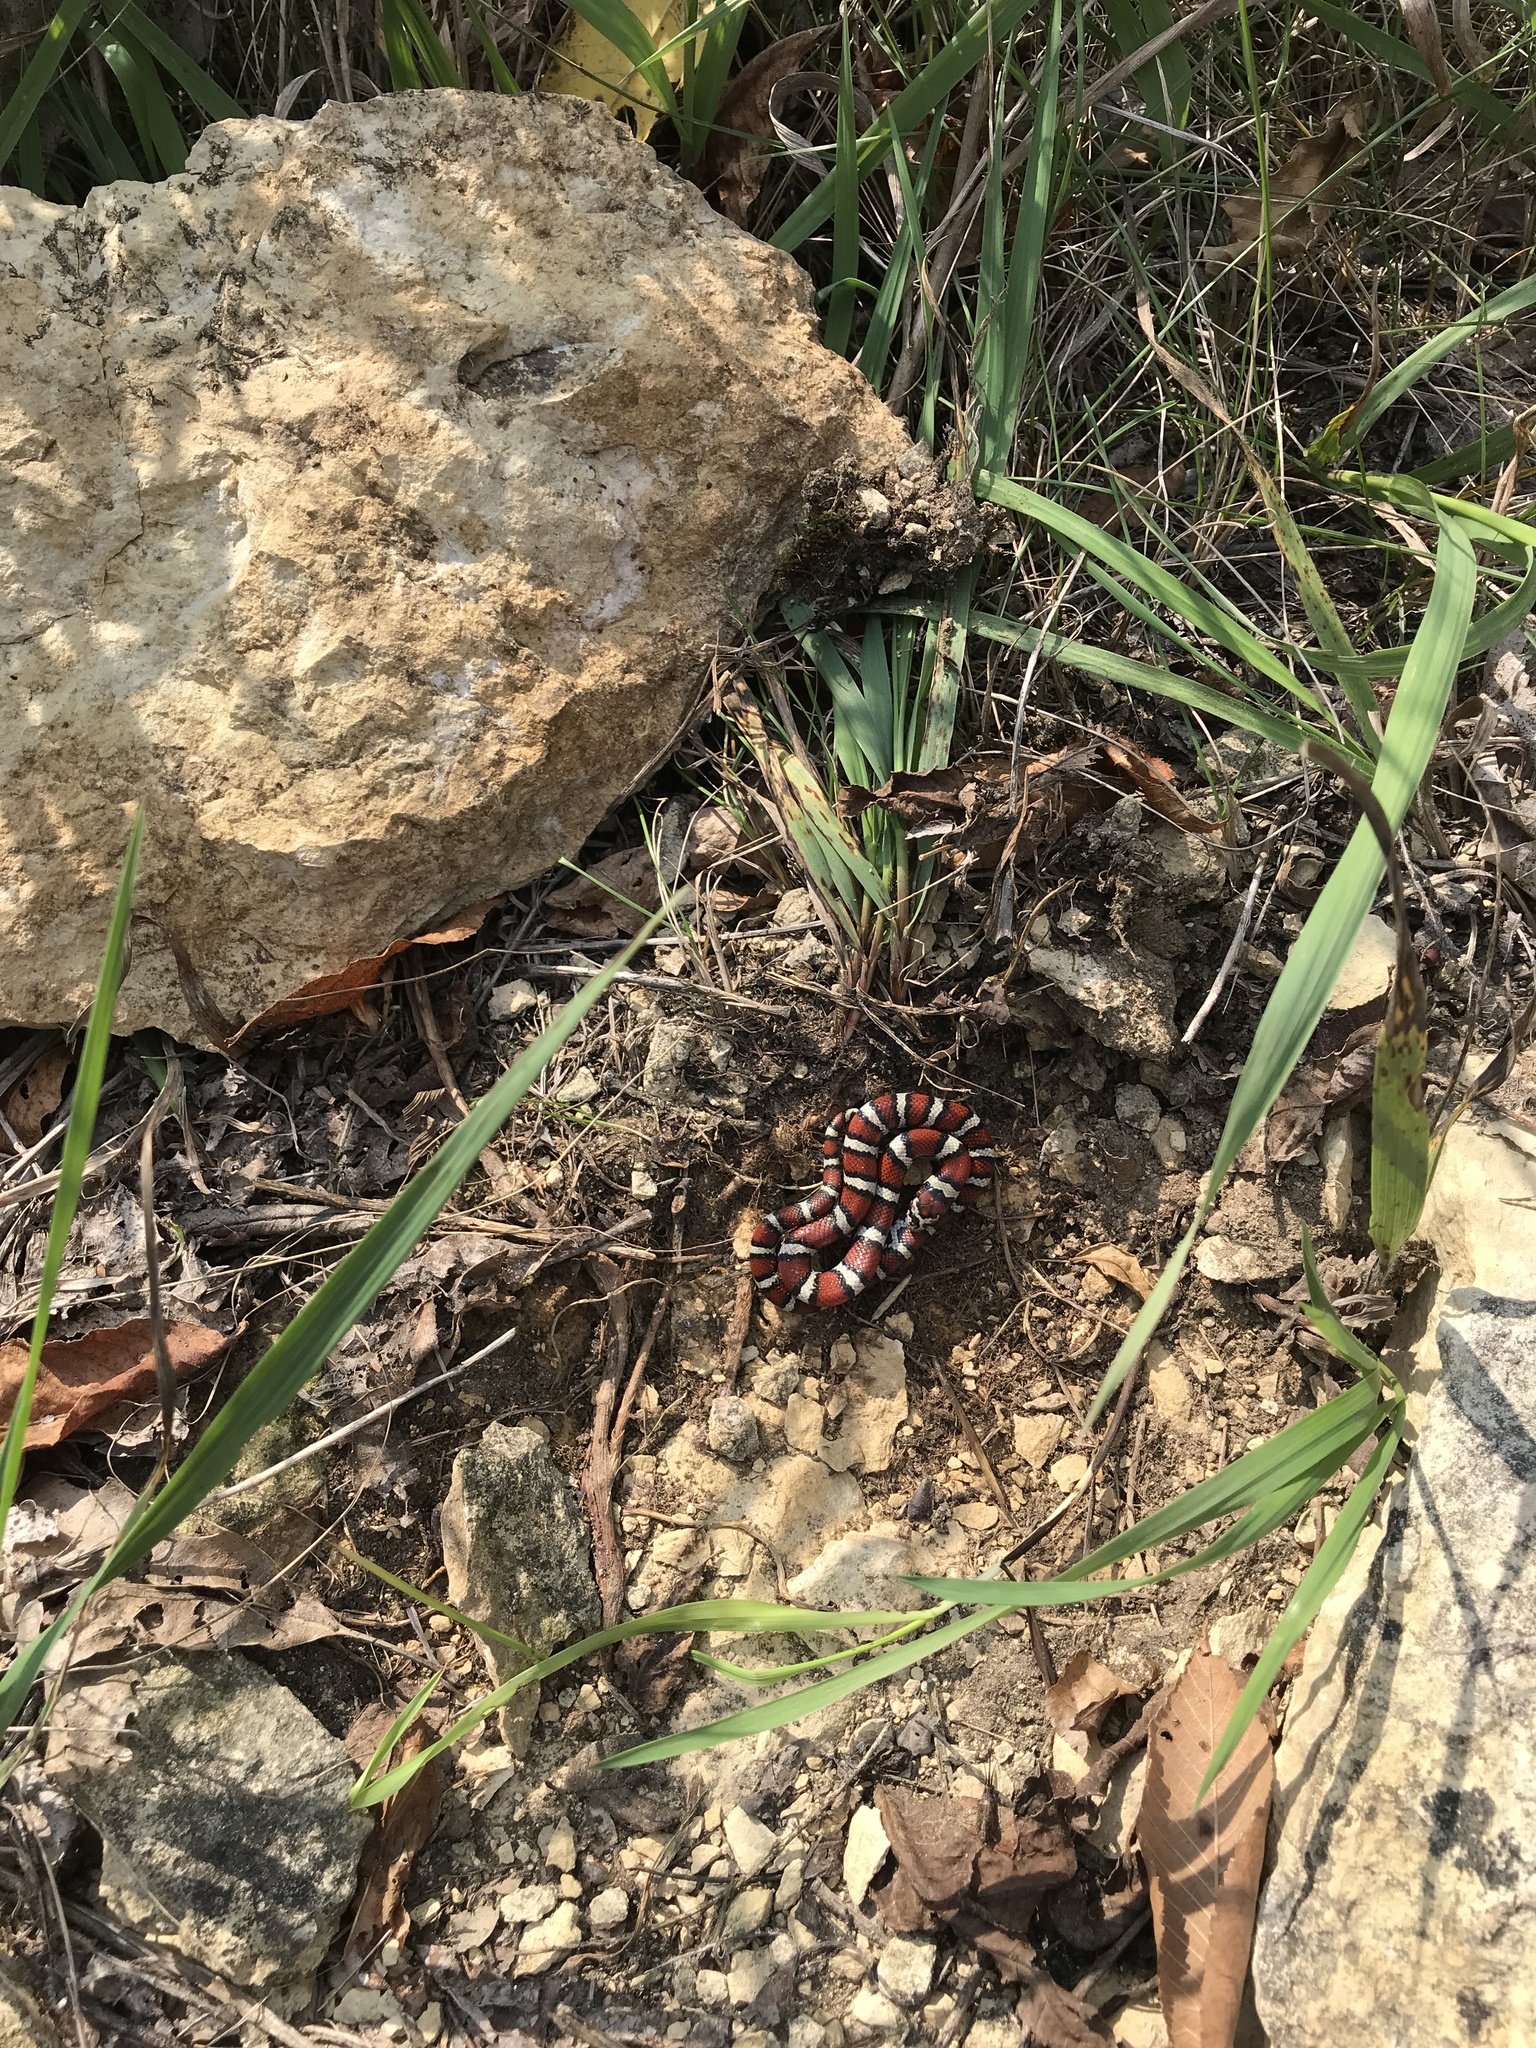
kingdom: Animalia
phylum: Chordata
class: Squamata
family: Colubridae
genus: Lampropeltis
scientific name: Lampropeltis triangulum
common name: Eastern milksnake
